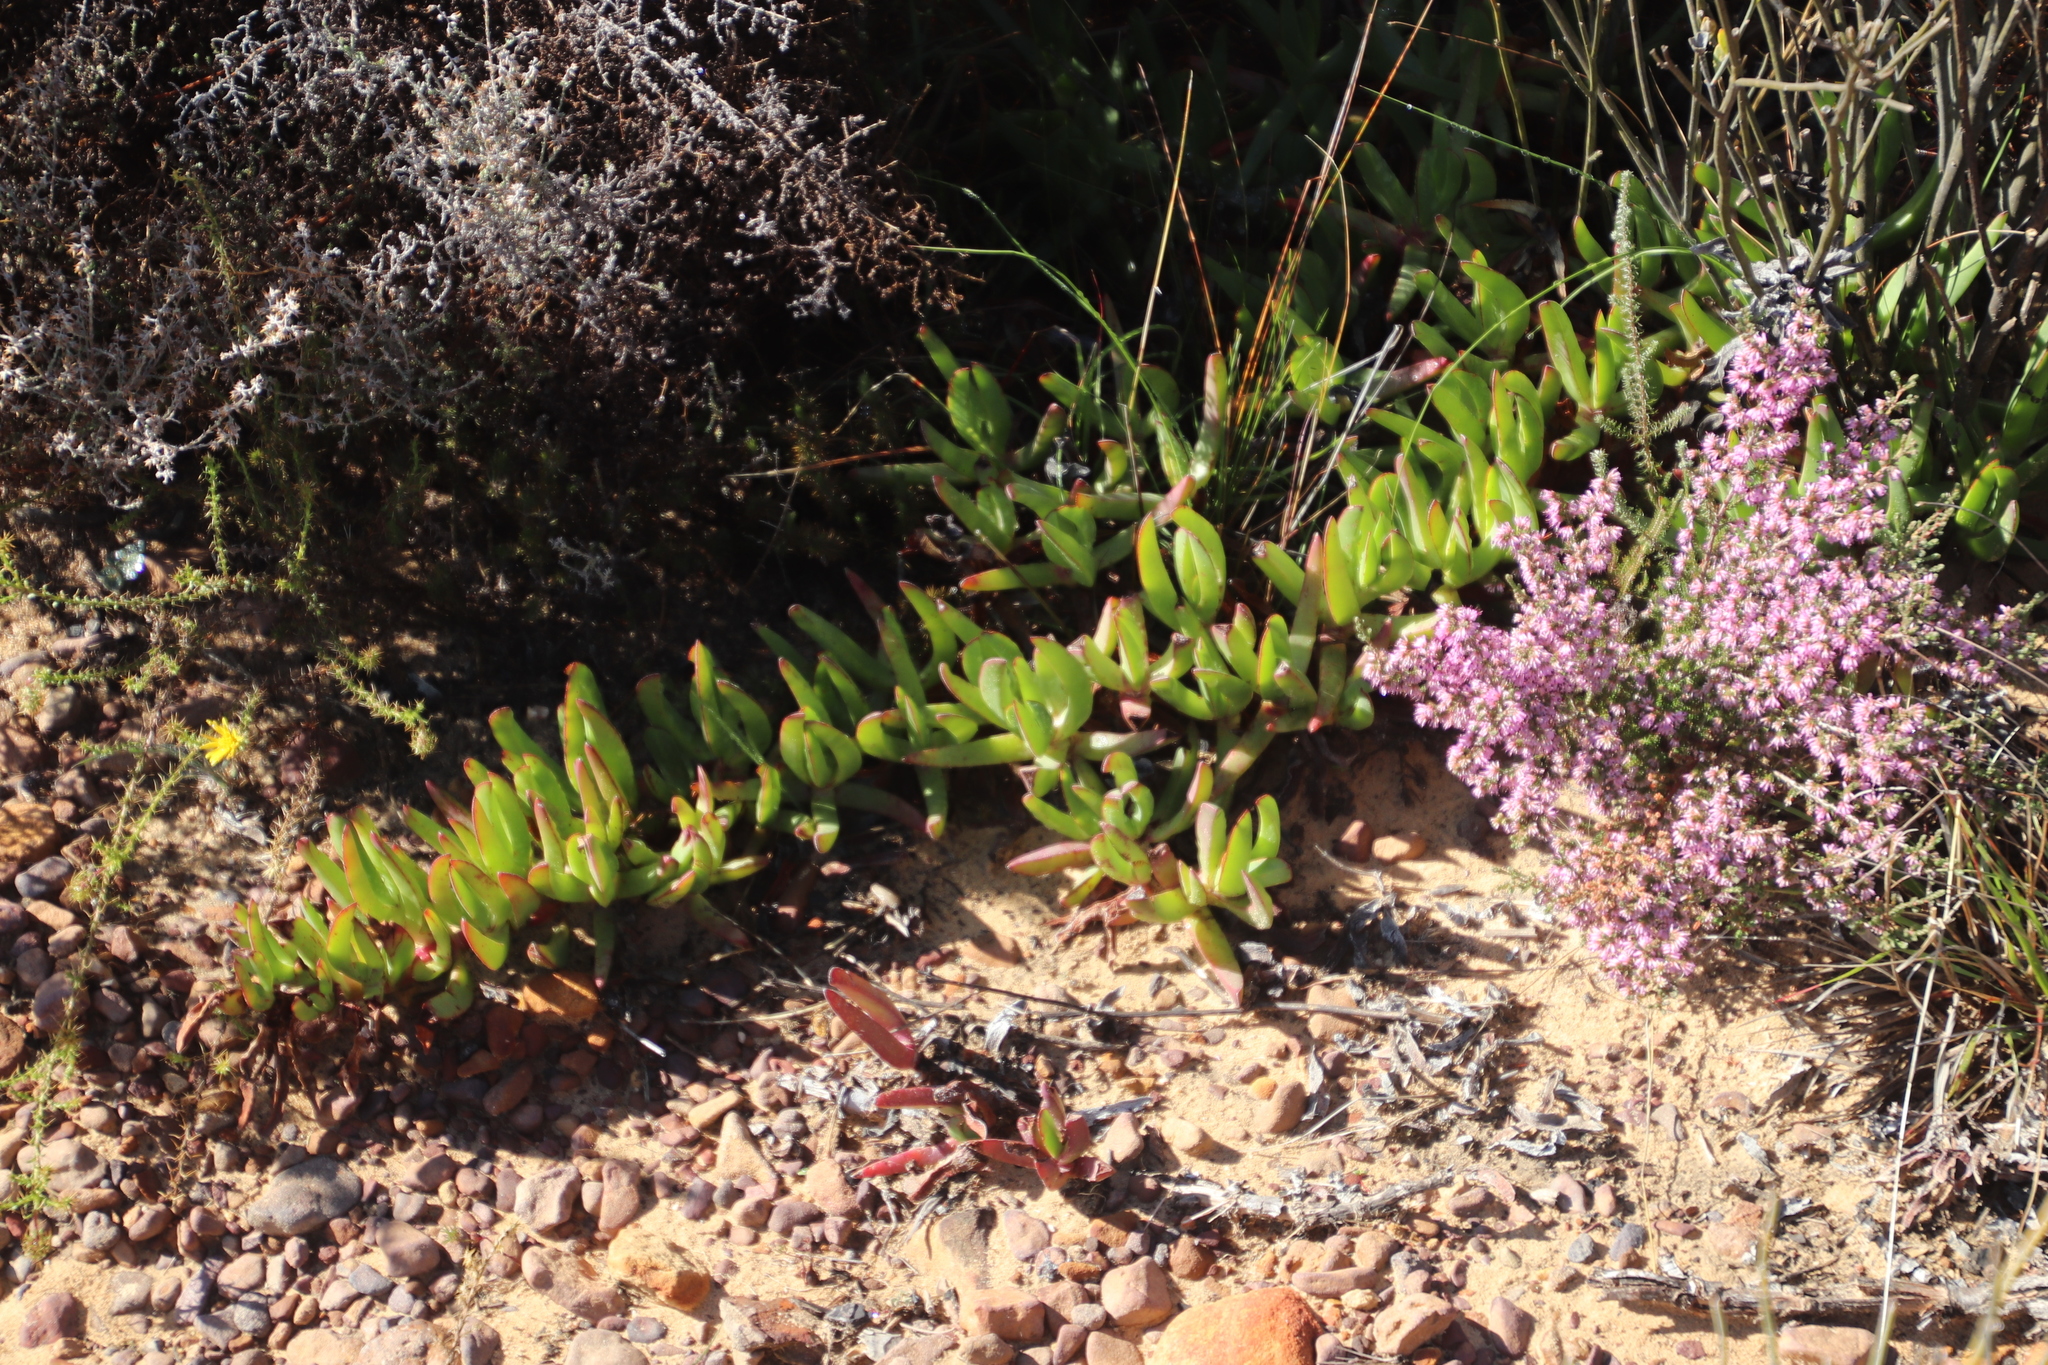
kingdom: Plantae
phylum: Tracheophyta
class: Magnoliopsida
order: Caryophyllales
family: Aizoaceae
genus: Carpobrotus
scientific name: Carpobrotus edulis
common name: Hottentot-fig
